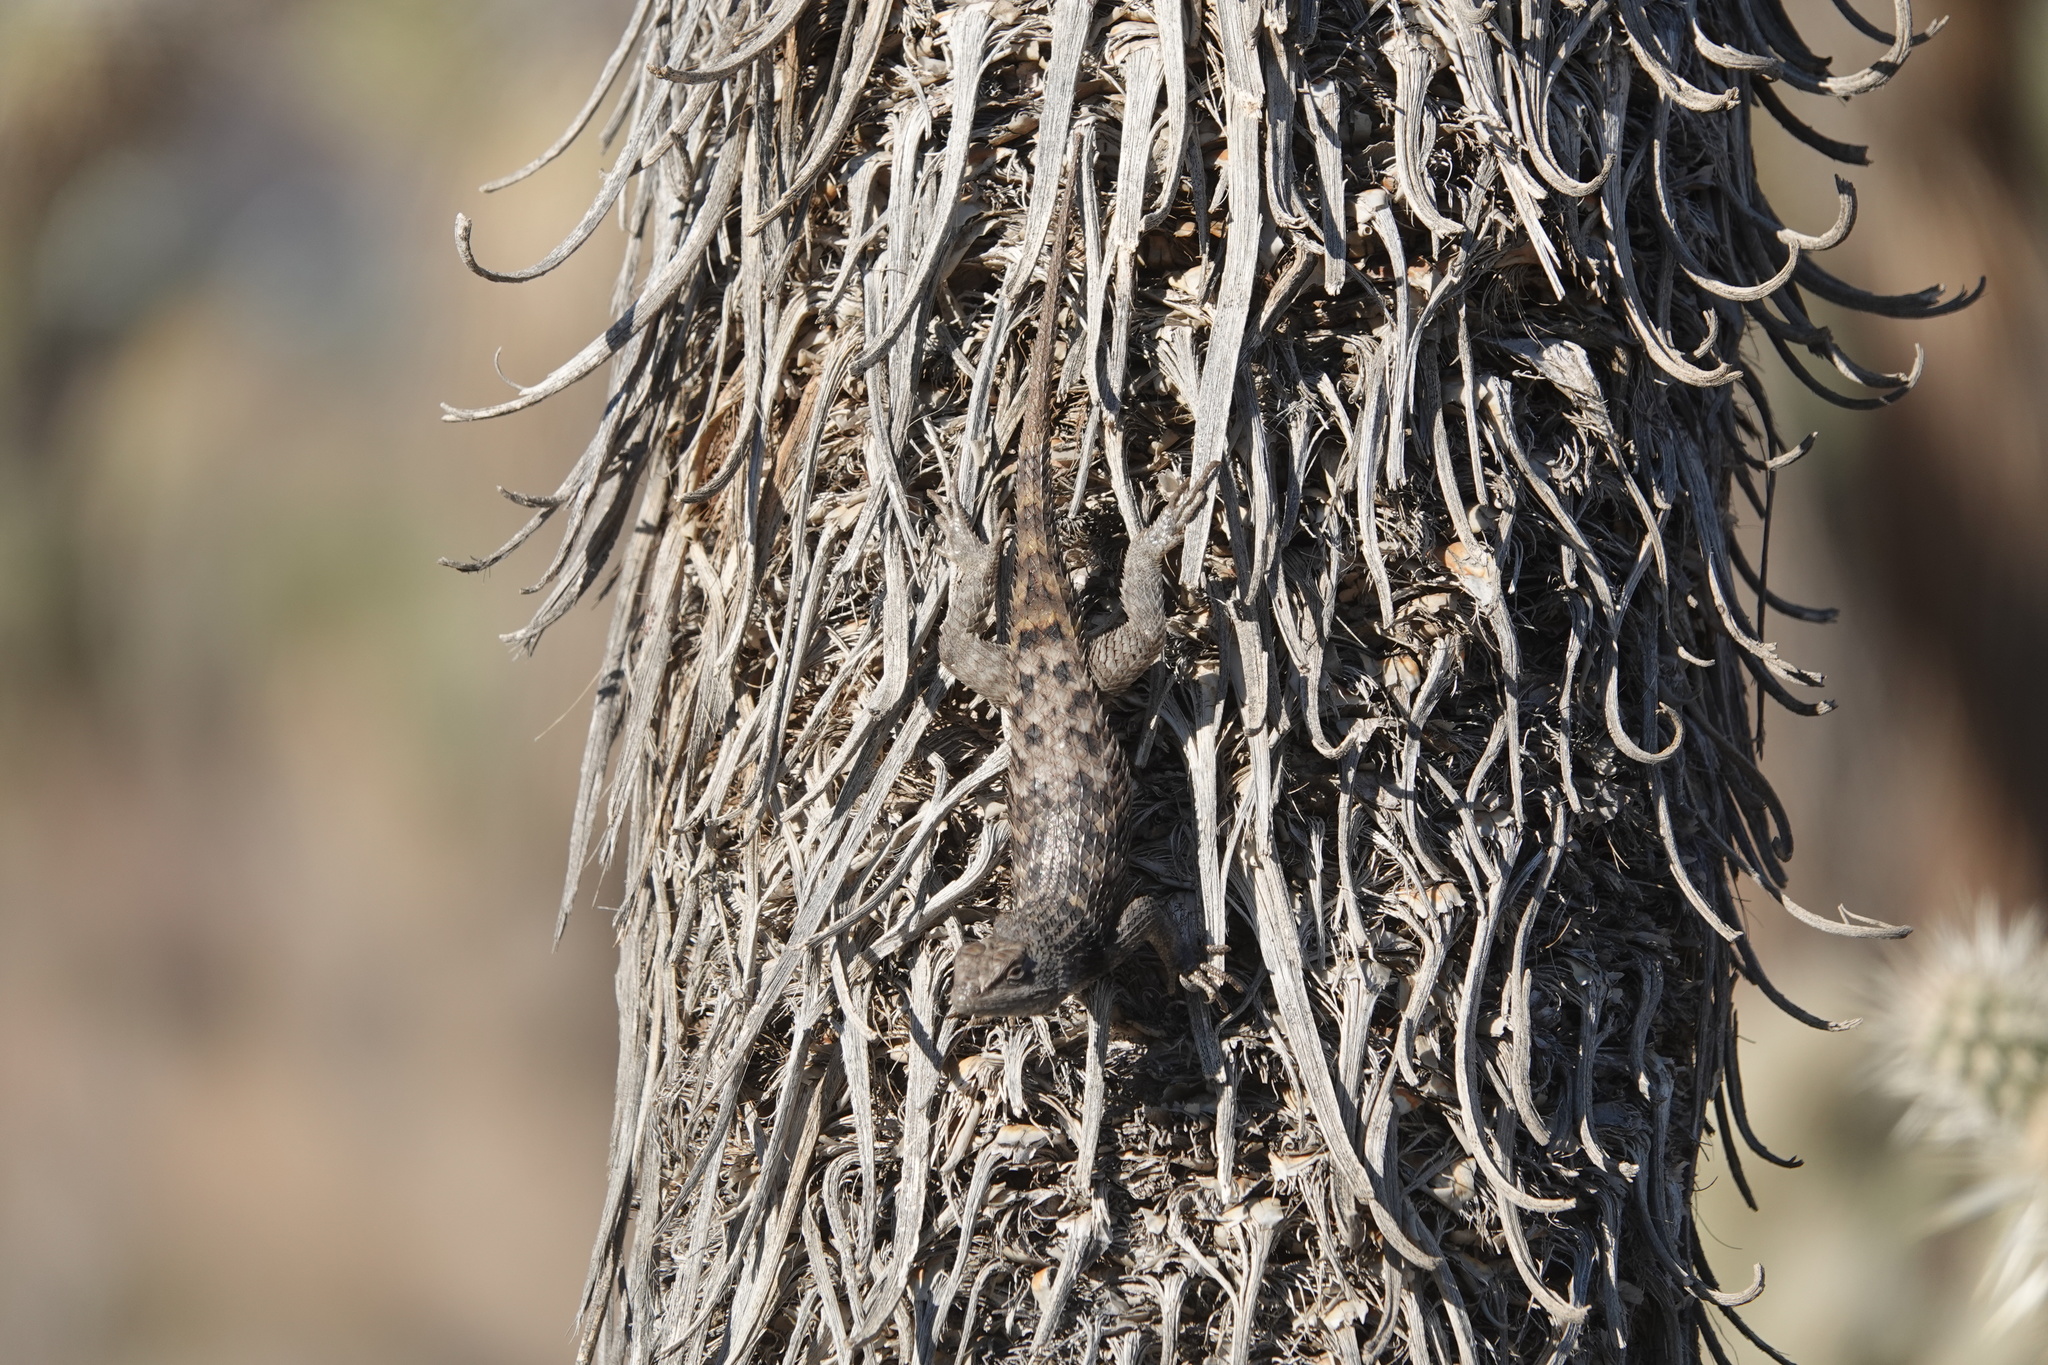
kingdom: Animalia
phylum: Chordata
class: Squamata
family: Phrynosomatidae
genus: Sceloporus
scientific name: Sceloporus uniformis
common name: Yellow-backed spiny lizard
